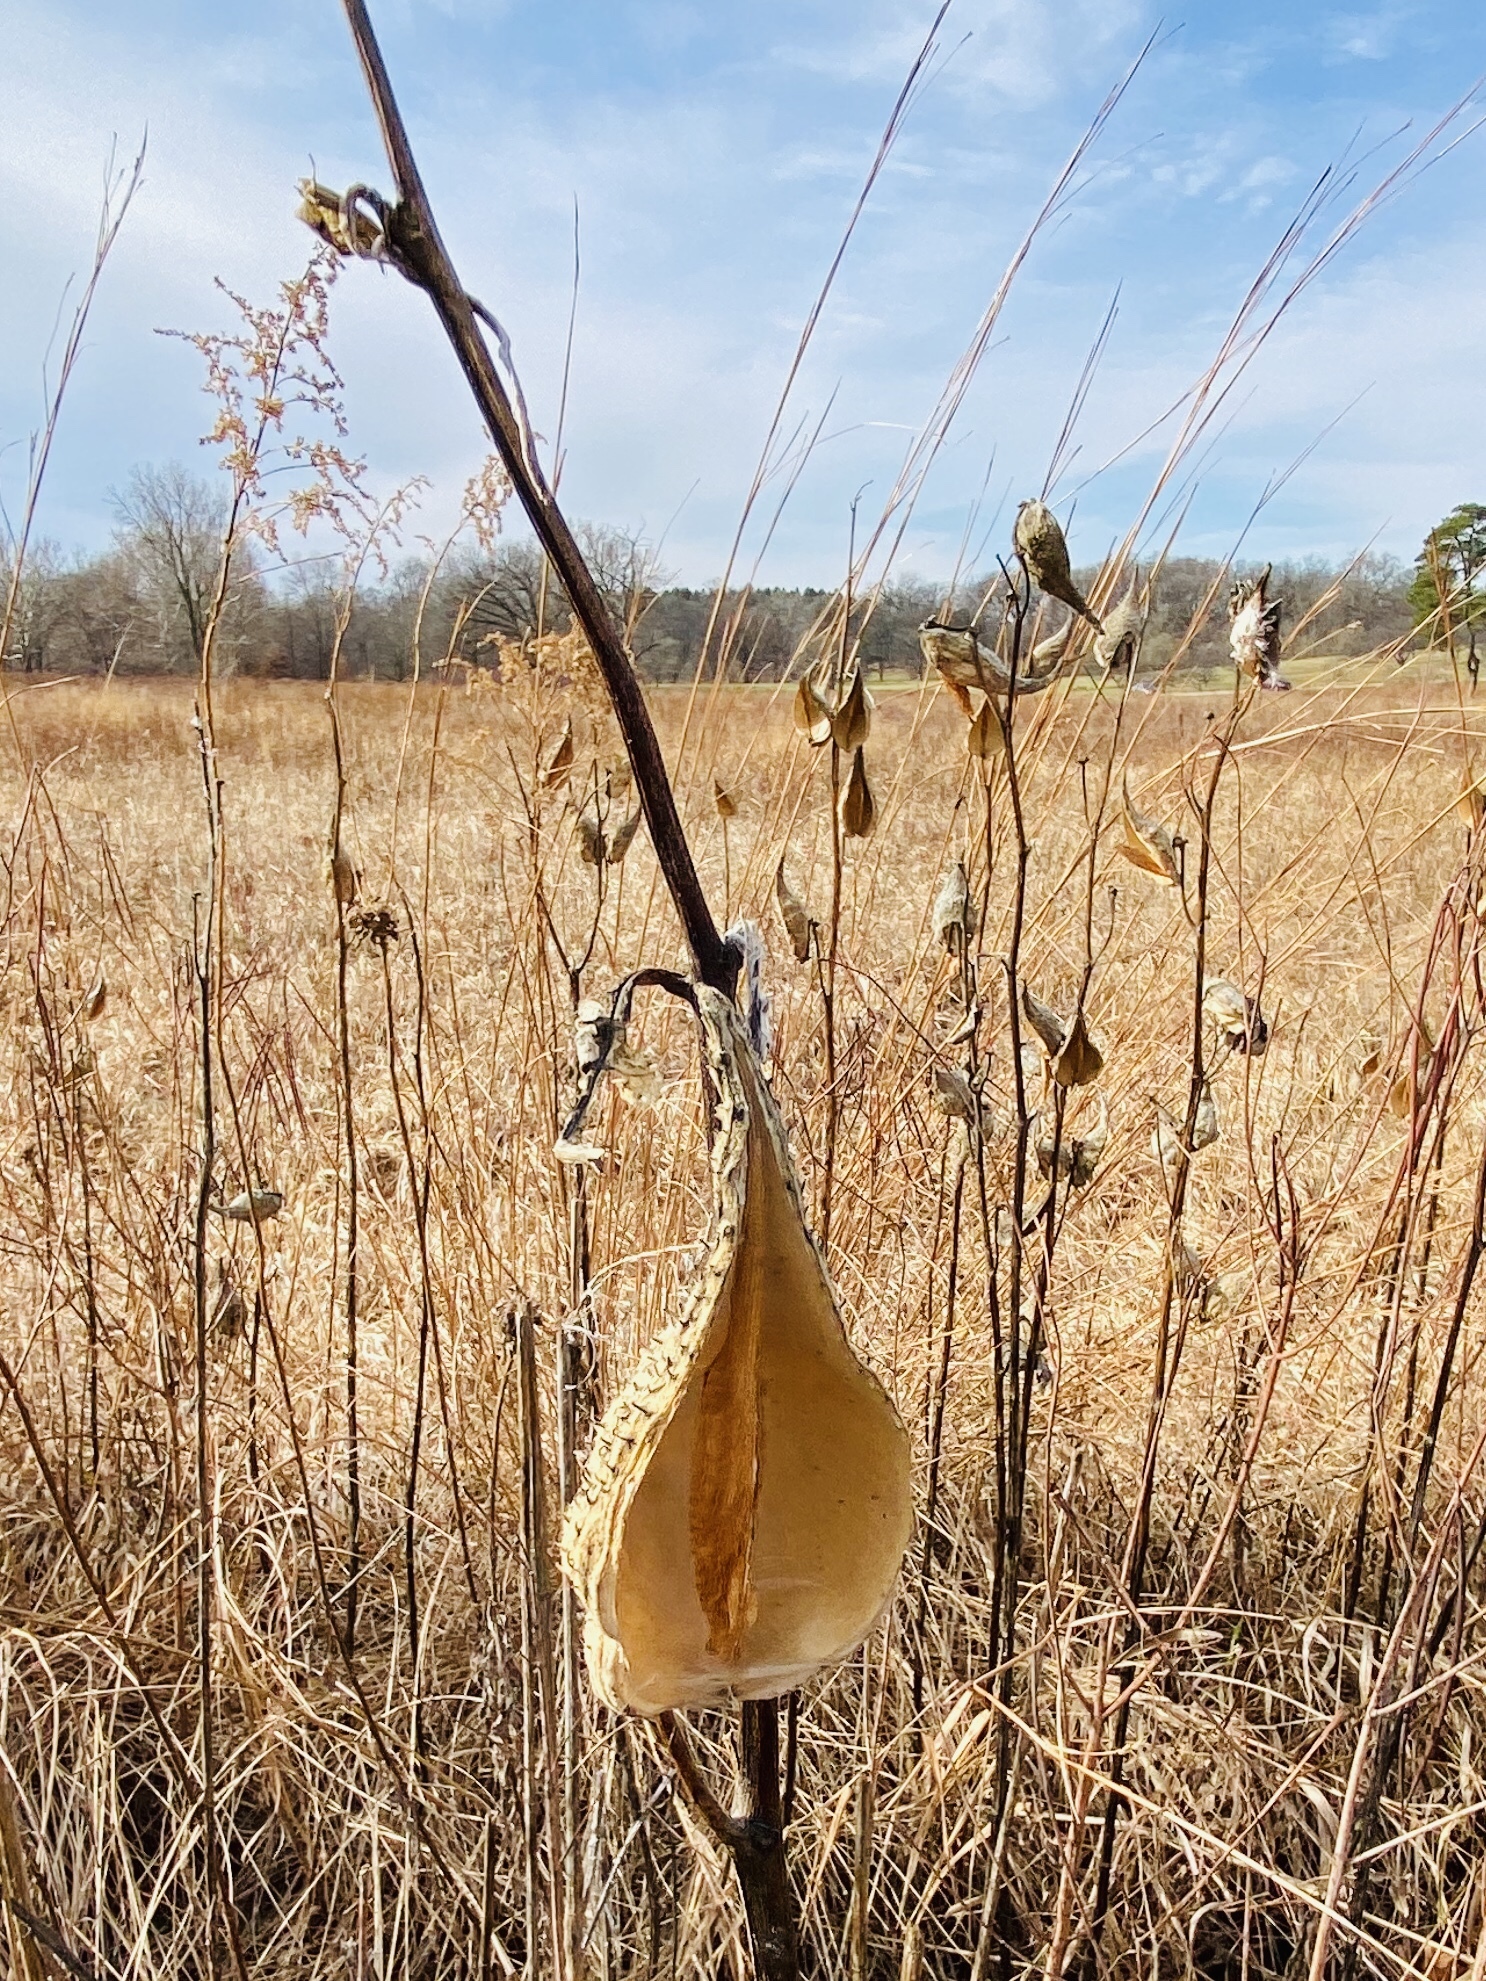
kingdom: Plantae
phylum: Tracheophyta
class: Magnoliopsida
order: Gentianales
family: Apocynaceae
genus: Asclepias
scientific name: Asclepias syriaca
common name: Common milkweed
